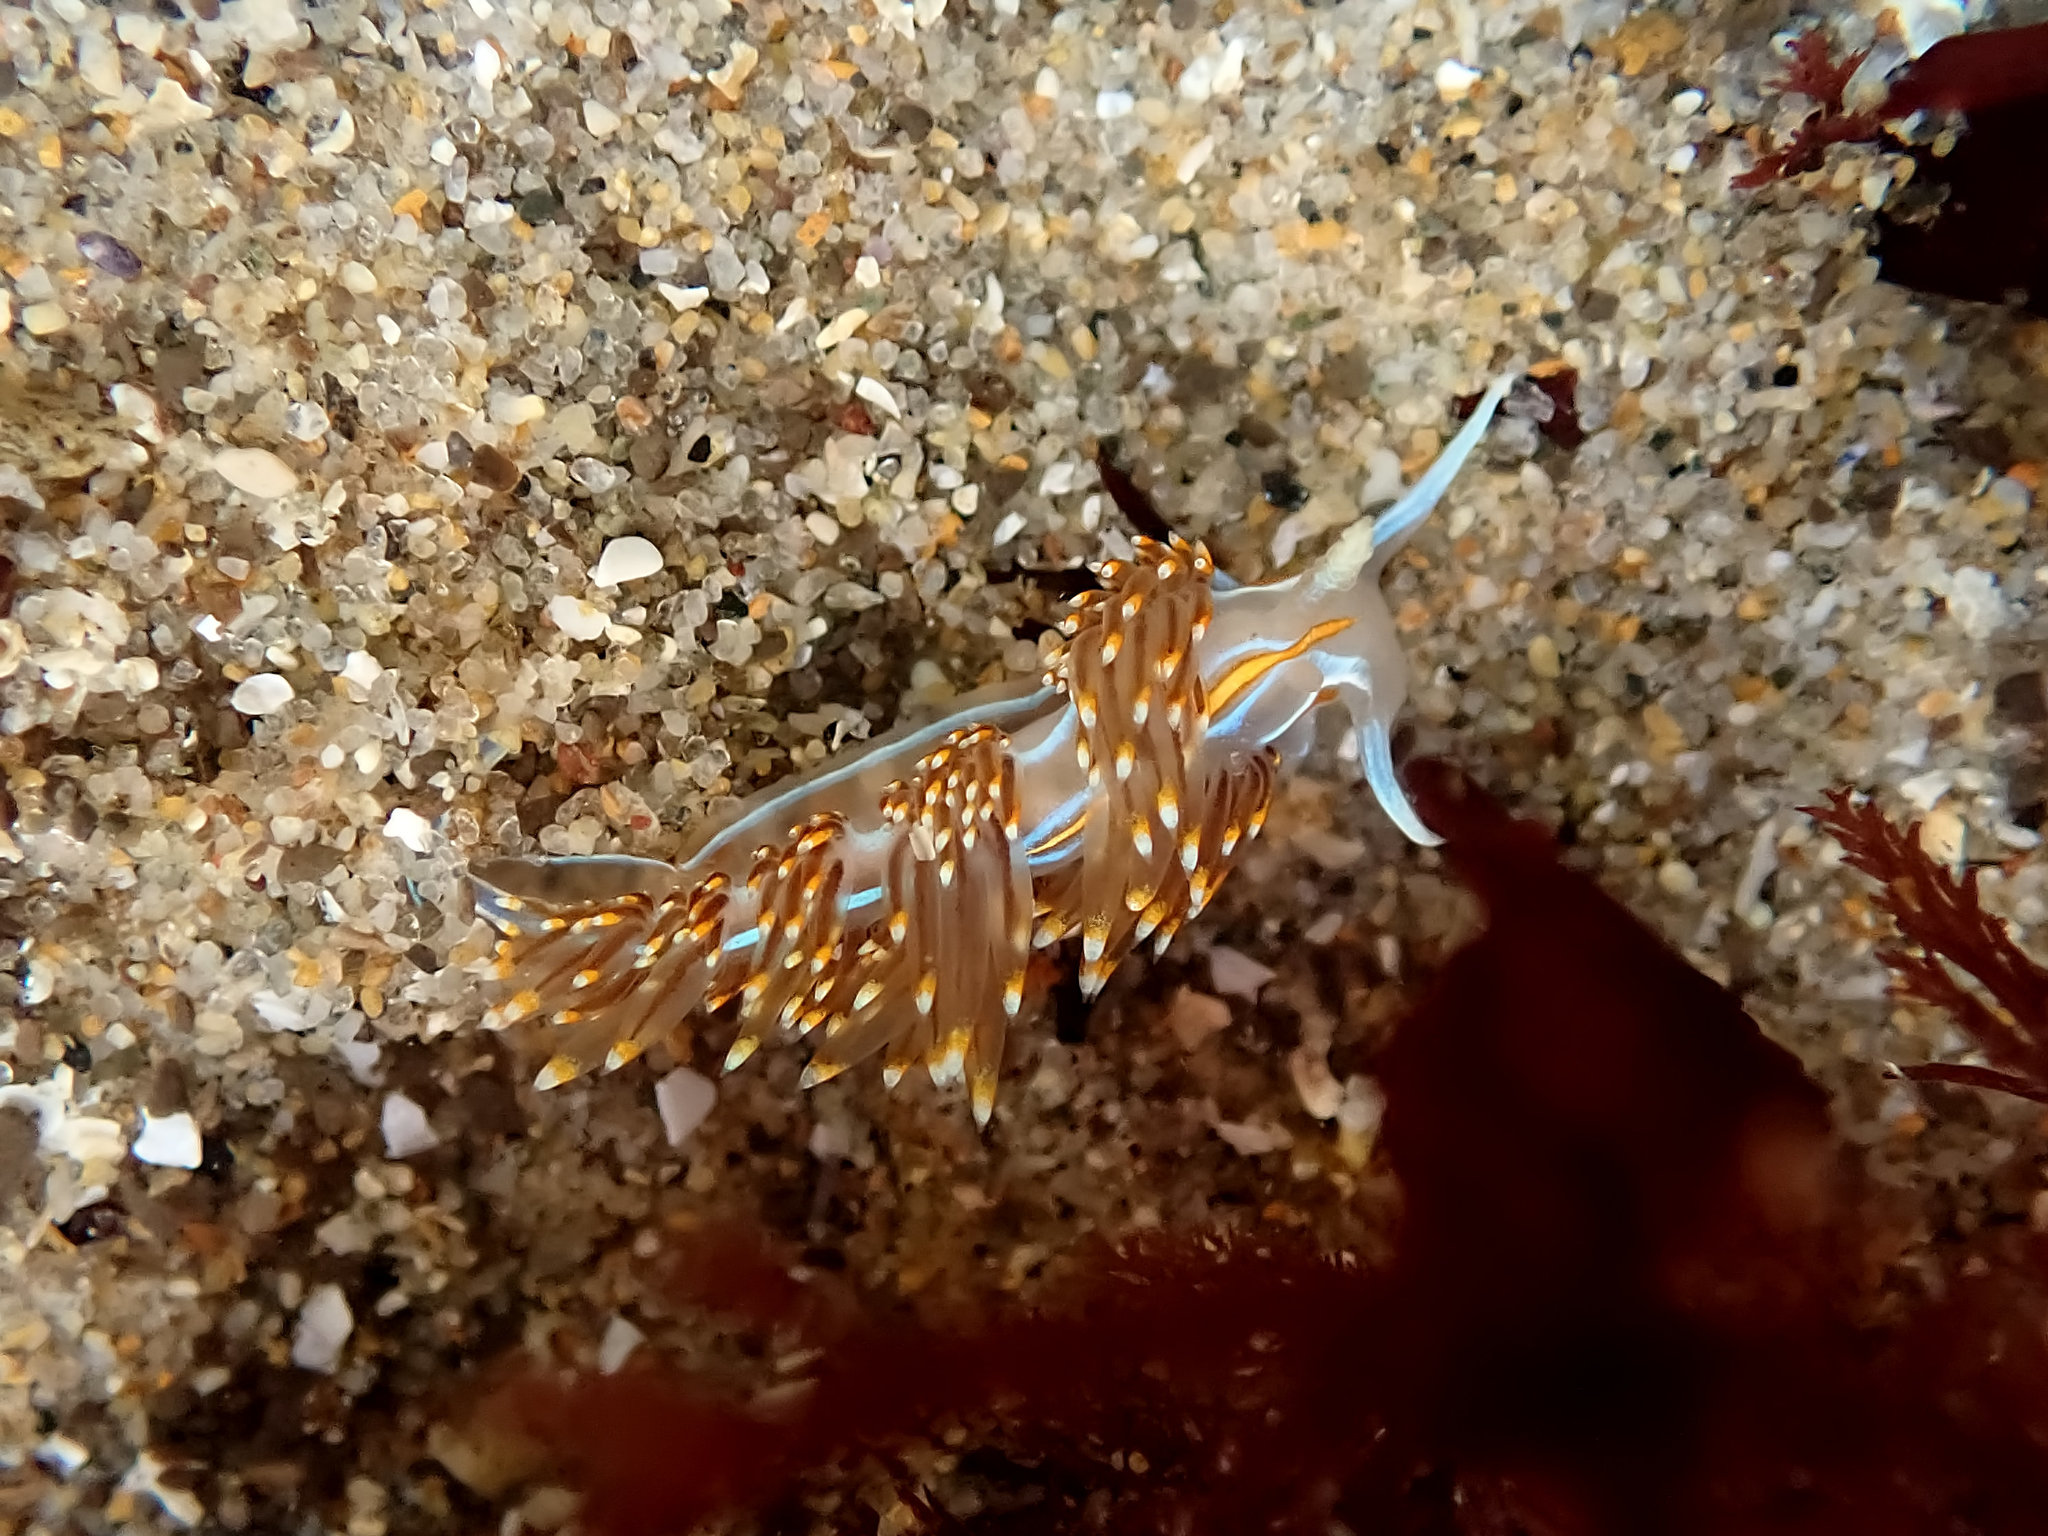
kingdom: Animalia
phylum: Mollusca
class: Gastropoda
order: Nudibranchia
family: Myrrhinidae
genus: Hermissenda
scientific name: Hermissenda opalescens
